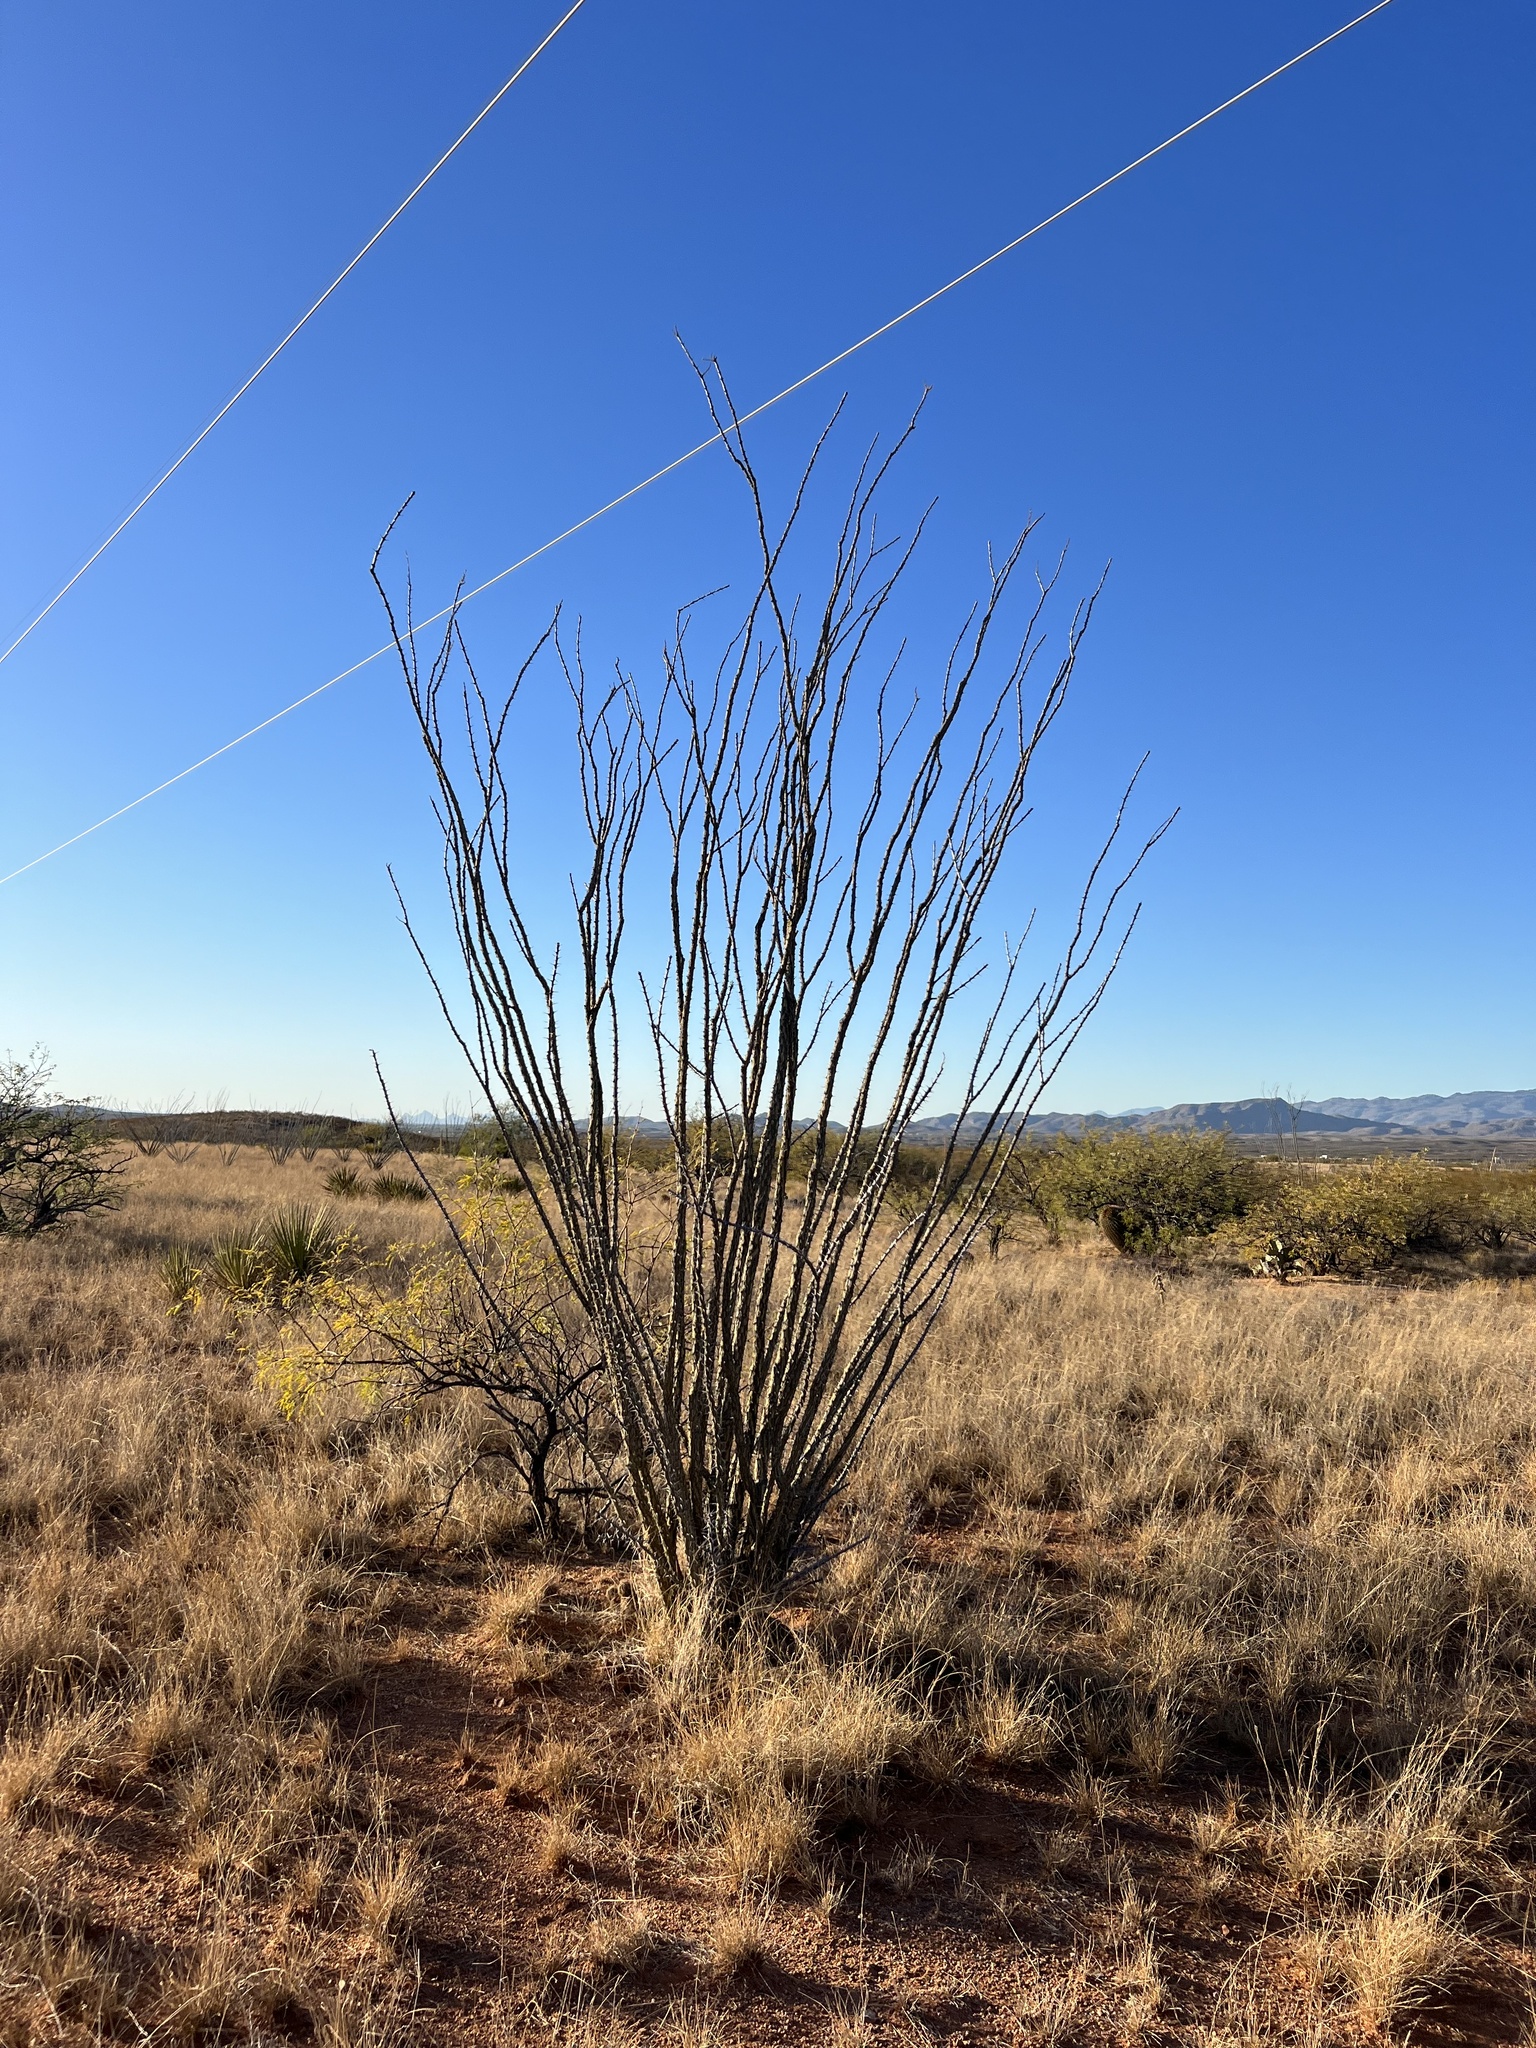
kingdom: Plantae
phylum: Tracheophyta
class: Magnoliopsida
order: Ericales
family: Fouquieriaceae
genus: Fouquieria
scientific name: Fouquieria splendens
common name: Vine-cactus
